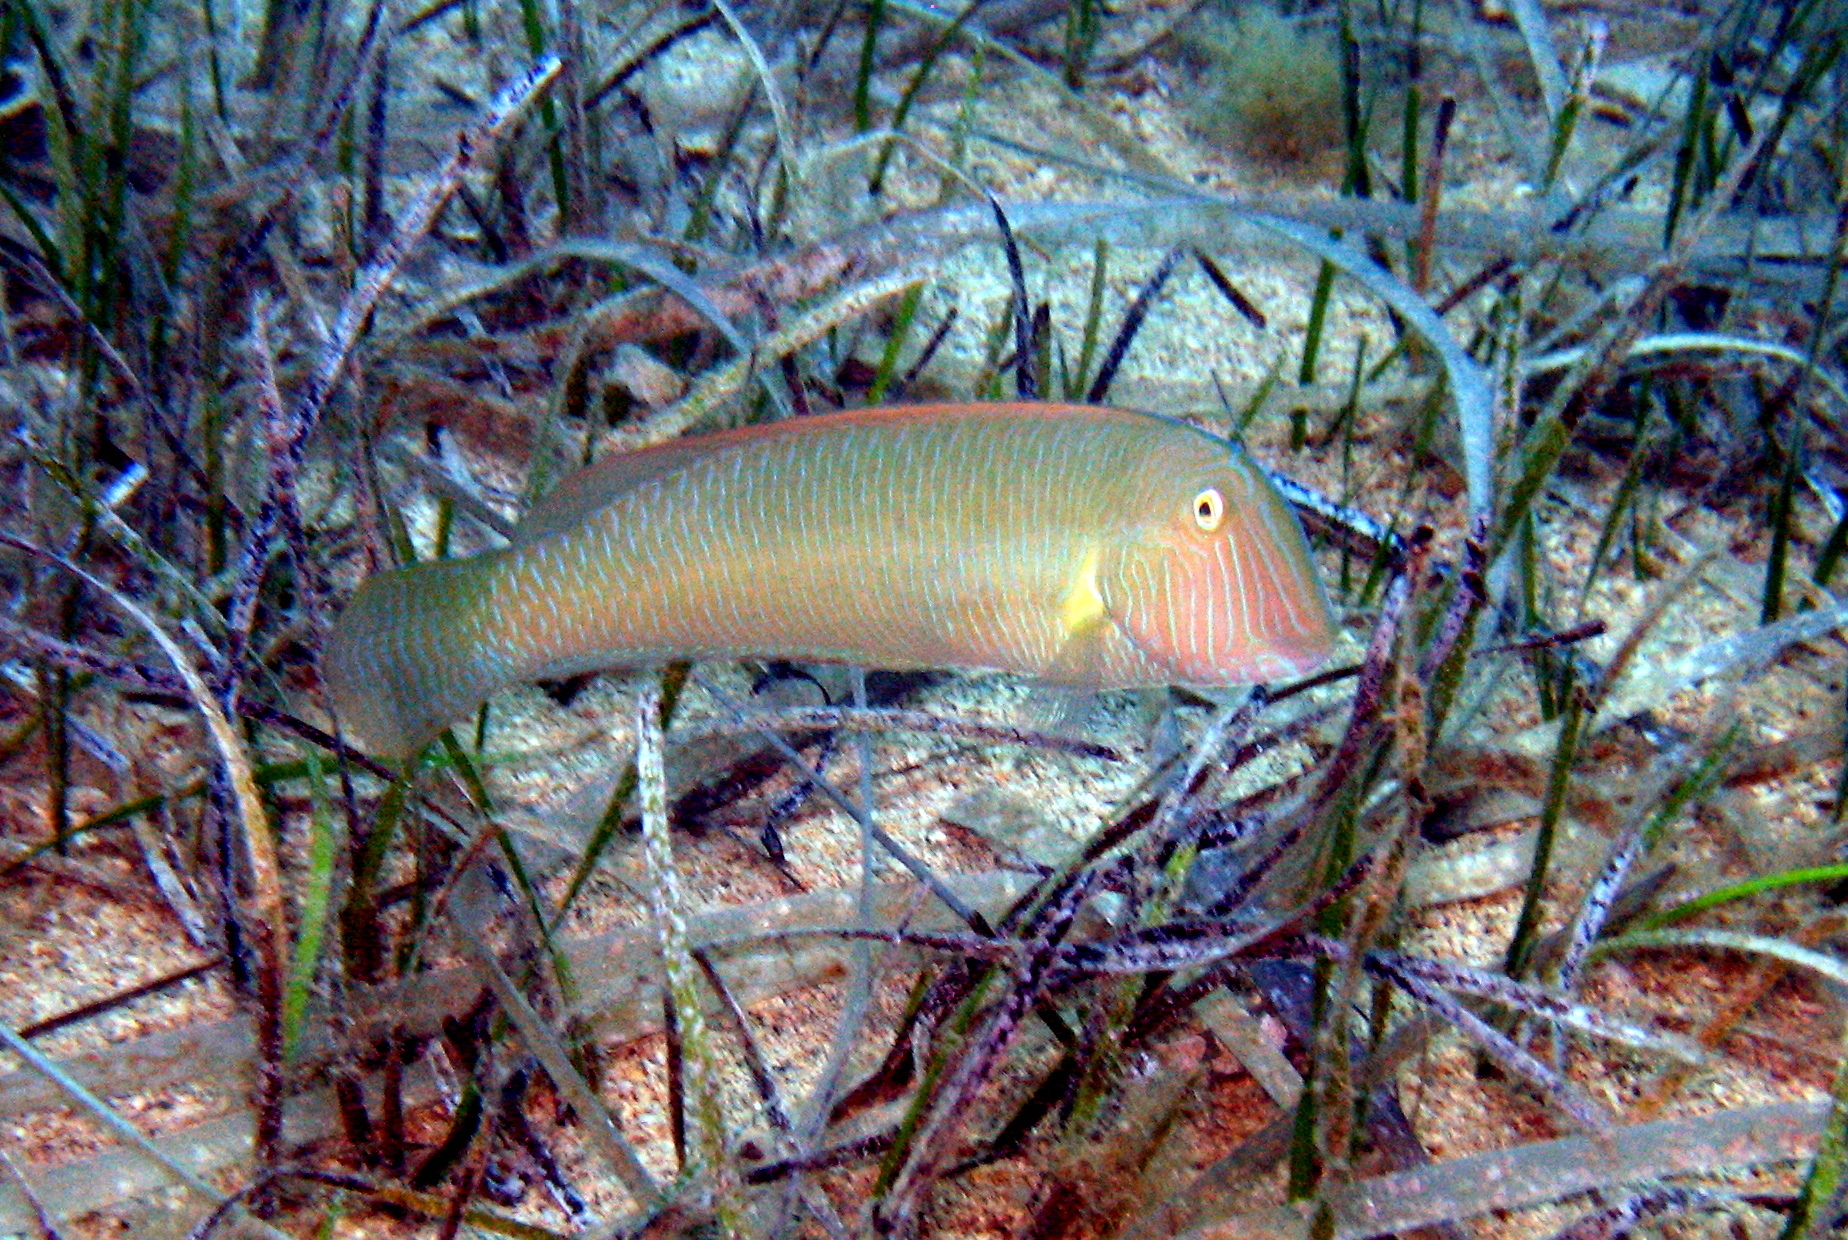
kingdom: Animalia
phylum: Chordata
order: Perciformes
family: Labridae
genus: Xyrichtys
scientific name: Xyrichtys novacula
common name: Pearly razorfish
